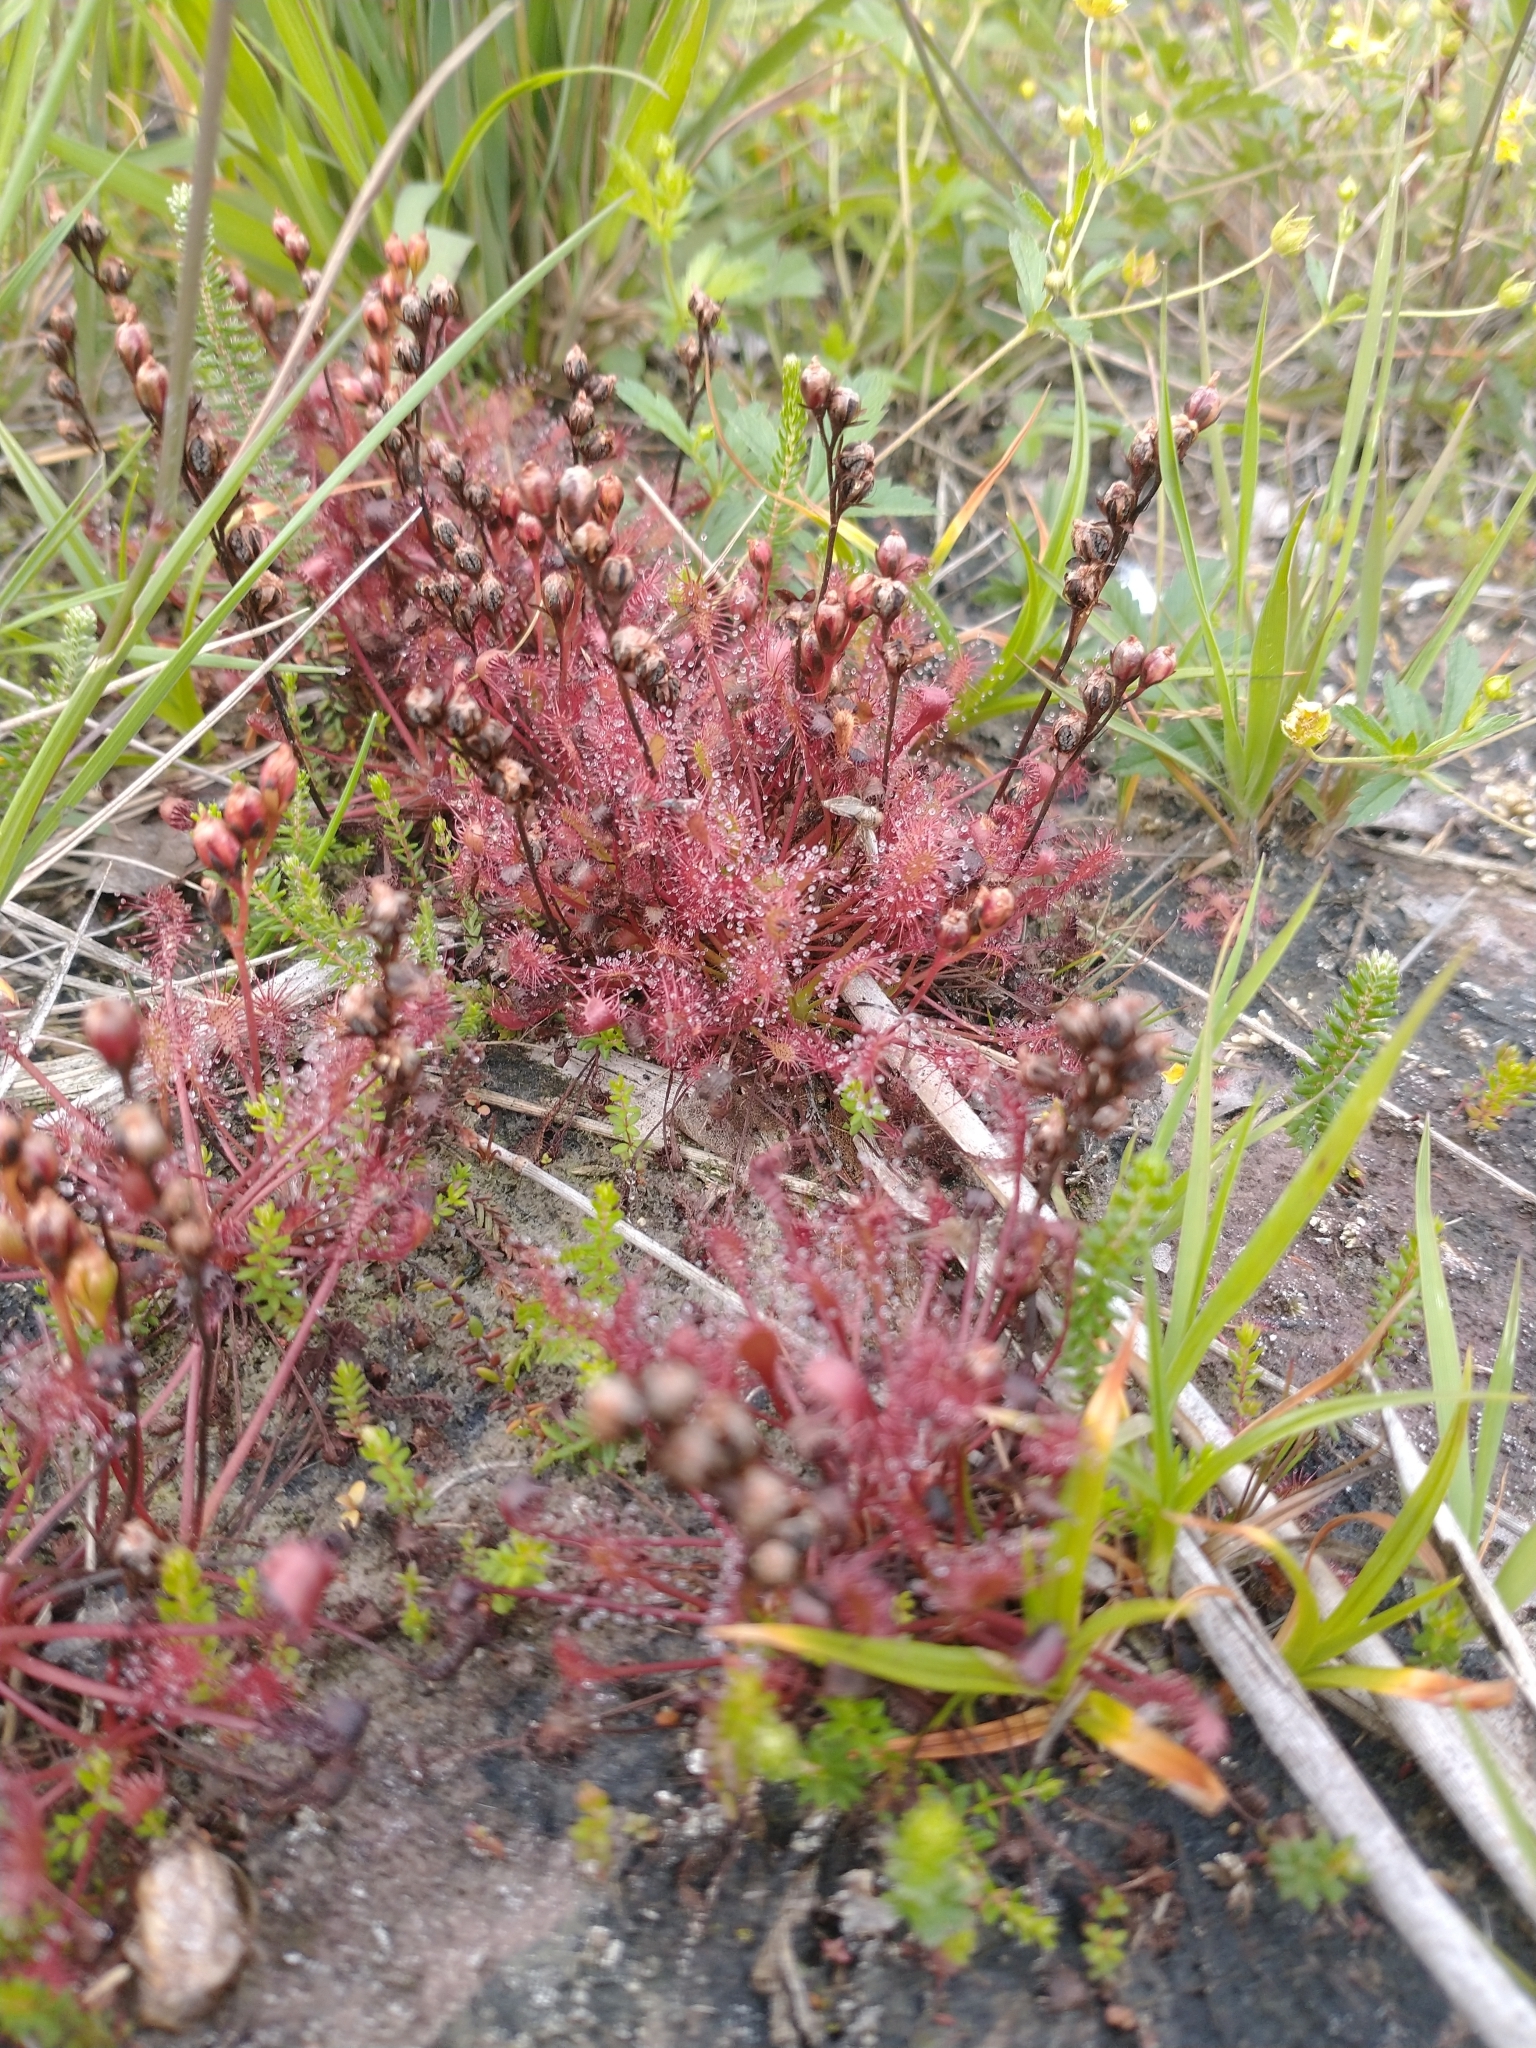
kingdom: Plantae
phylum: Tracheophyta
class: Magnoliopsida
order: Caryophyllales
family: Droseraceae
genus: Drosera
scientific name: Drosera intermedia
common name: Oblong-leaved sundew
